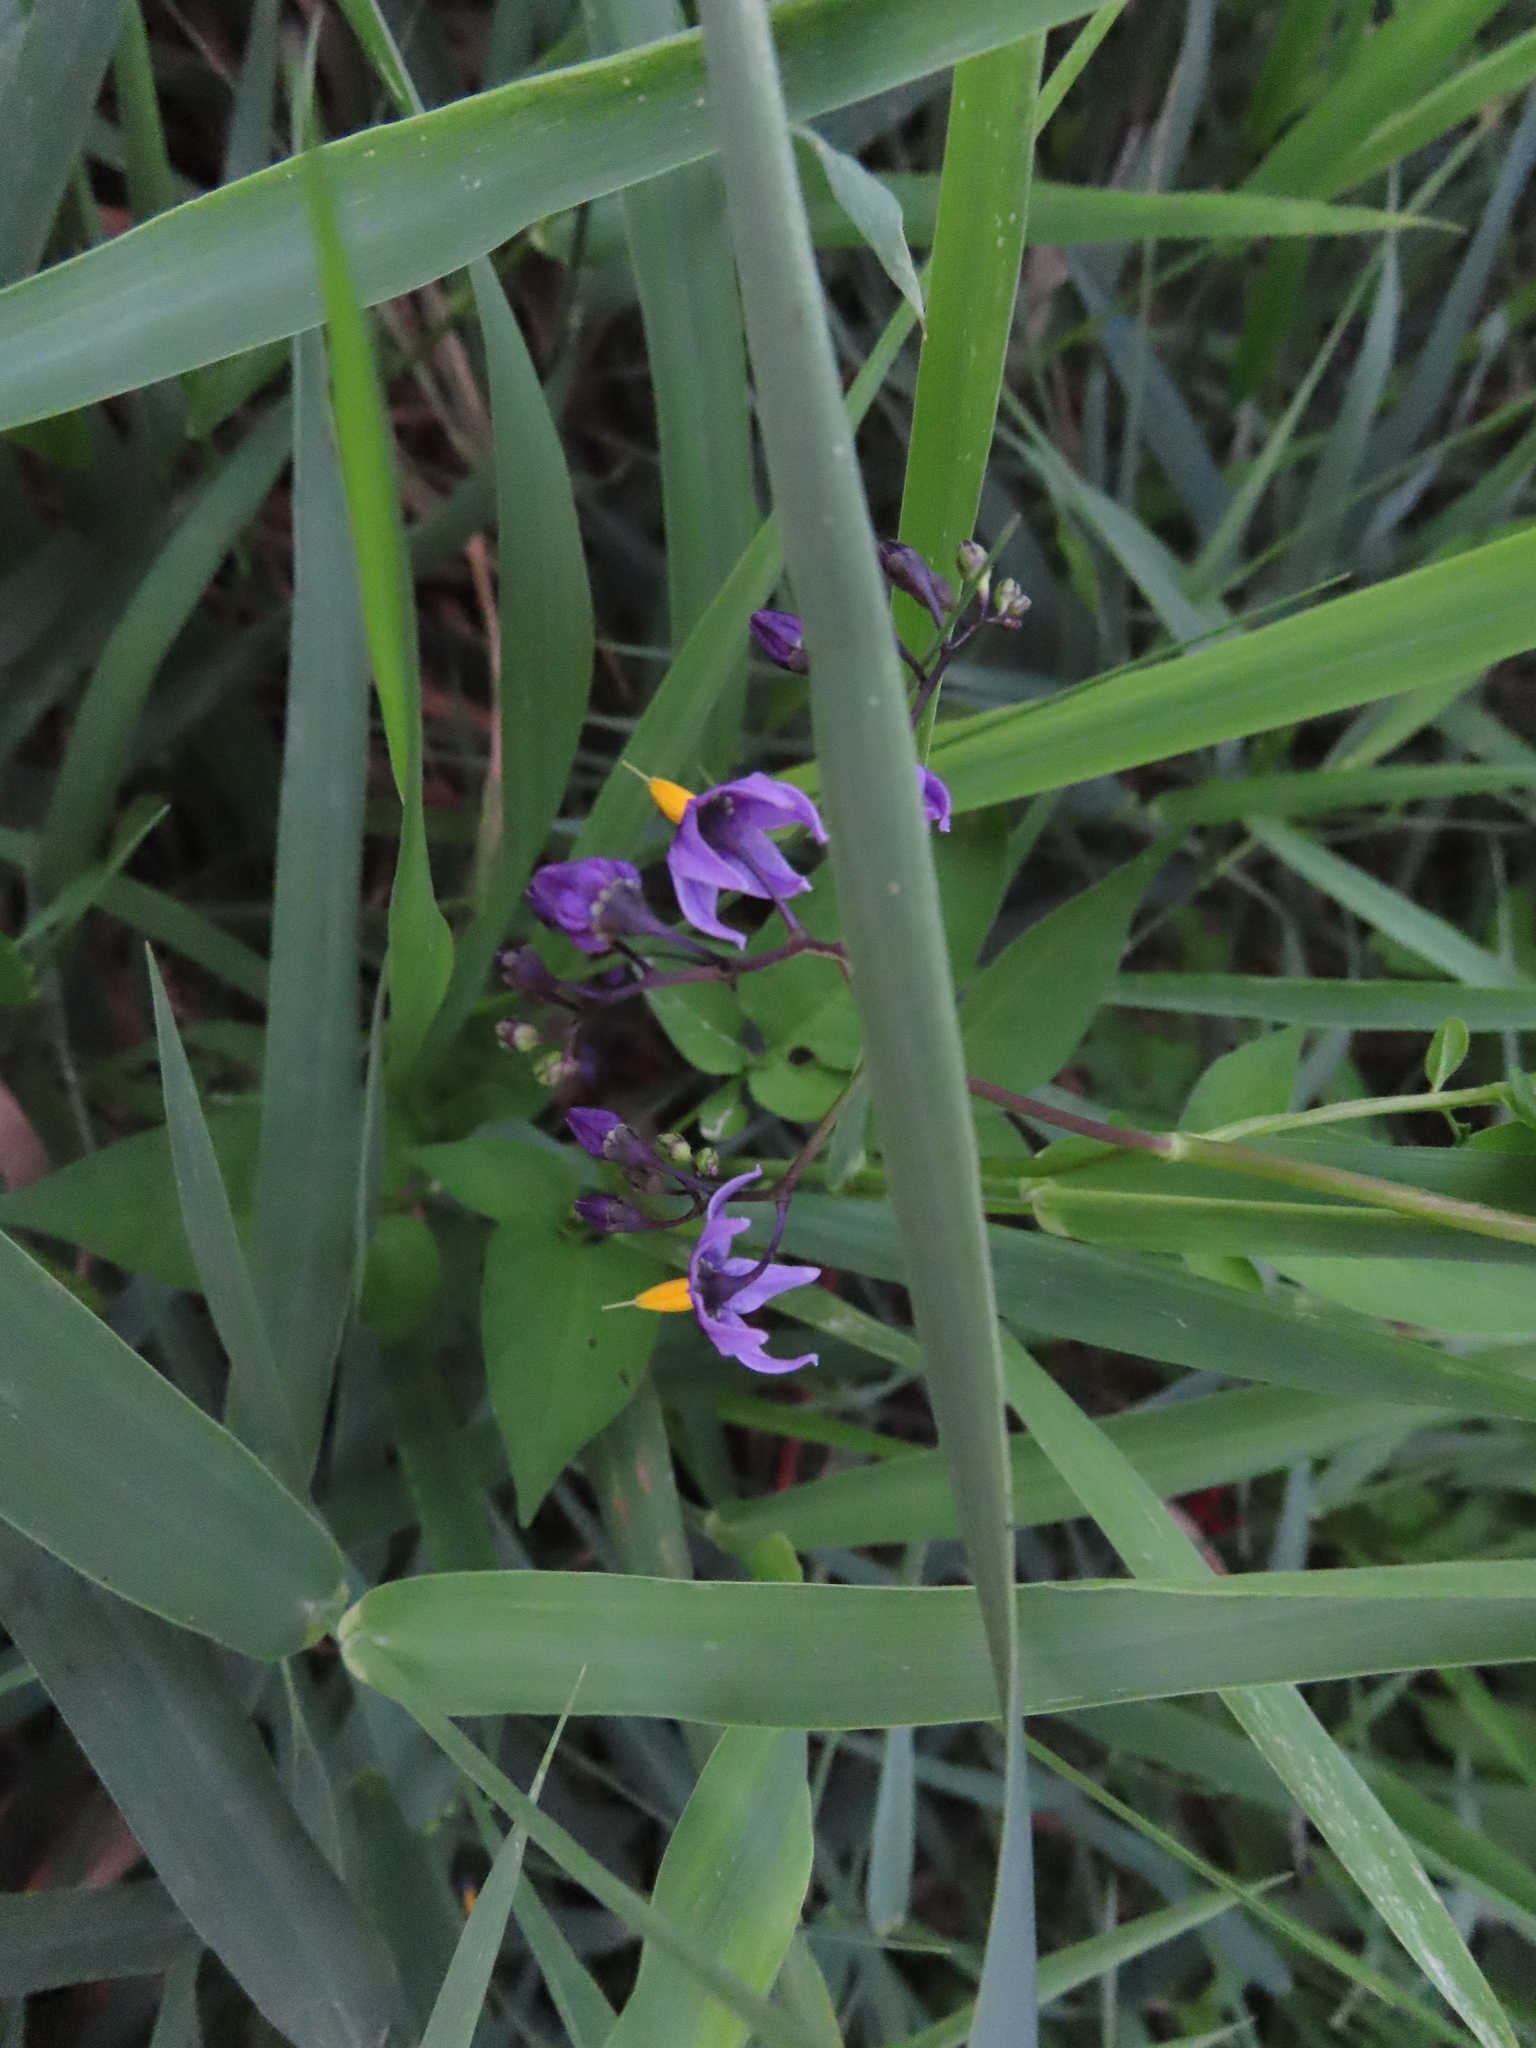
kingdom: Plantae
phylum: Tracheophyta
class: Magnoliopsida
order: Solanales
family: Solanaceae
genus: Solanum
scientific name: Solanum dulcamara
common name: Climbing nightshade
